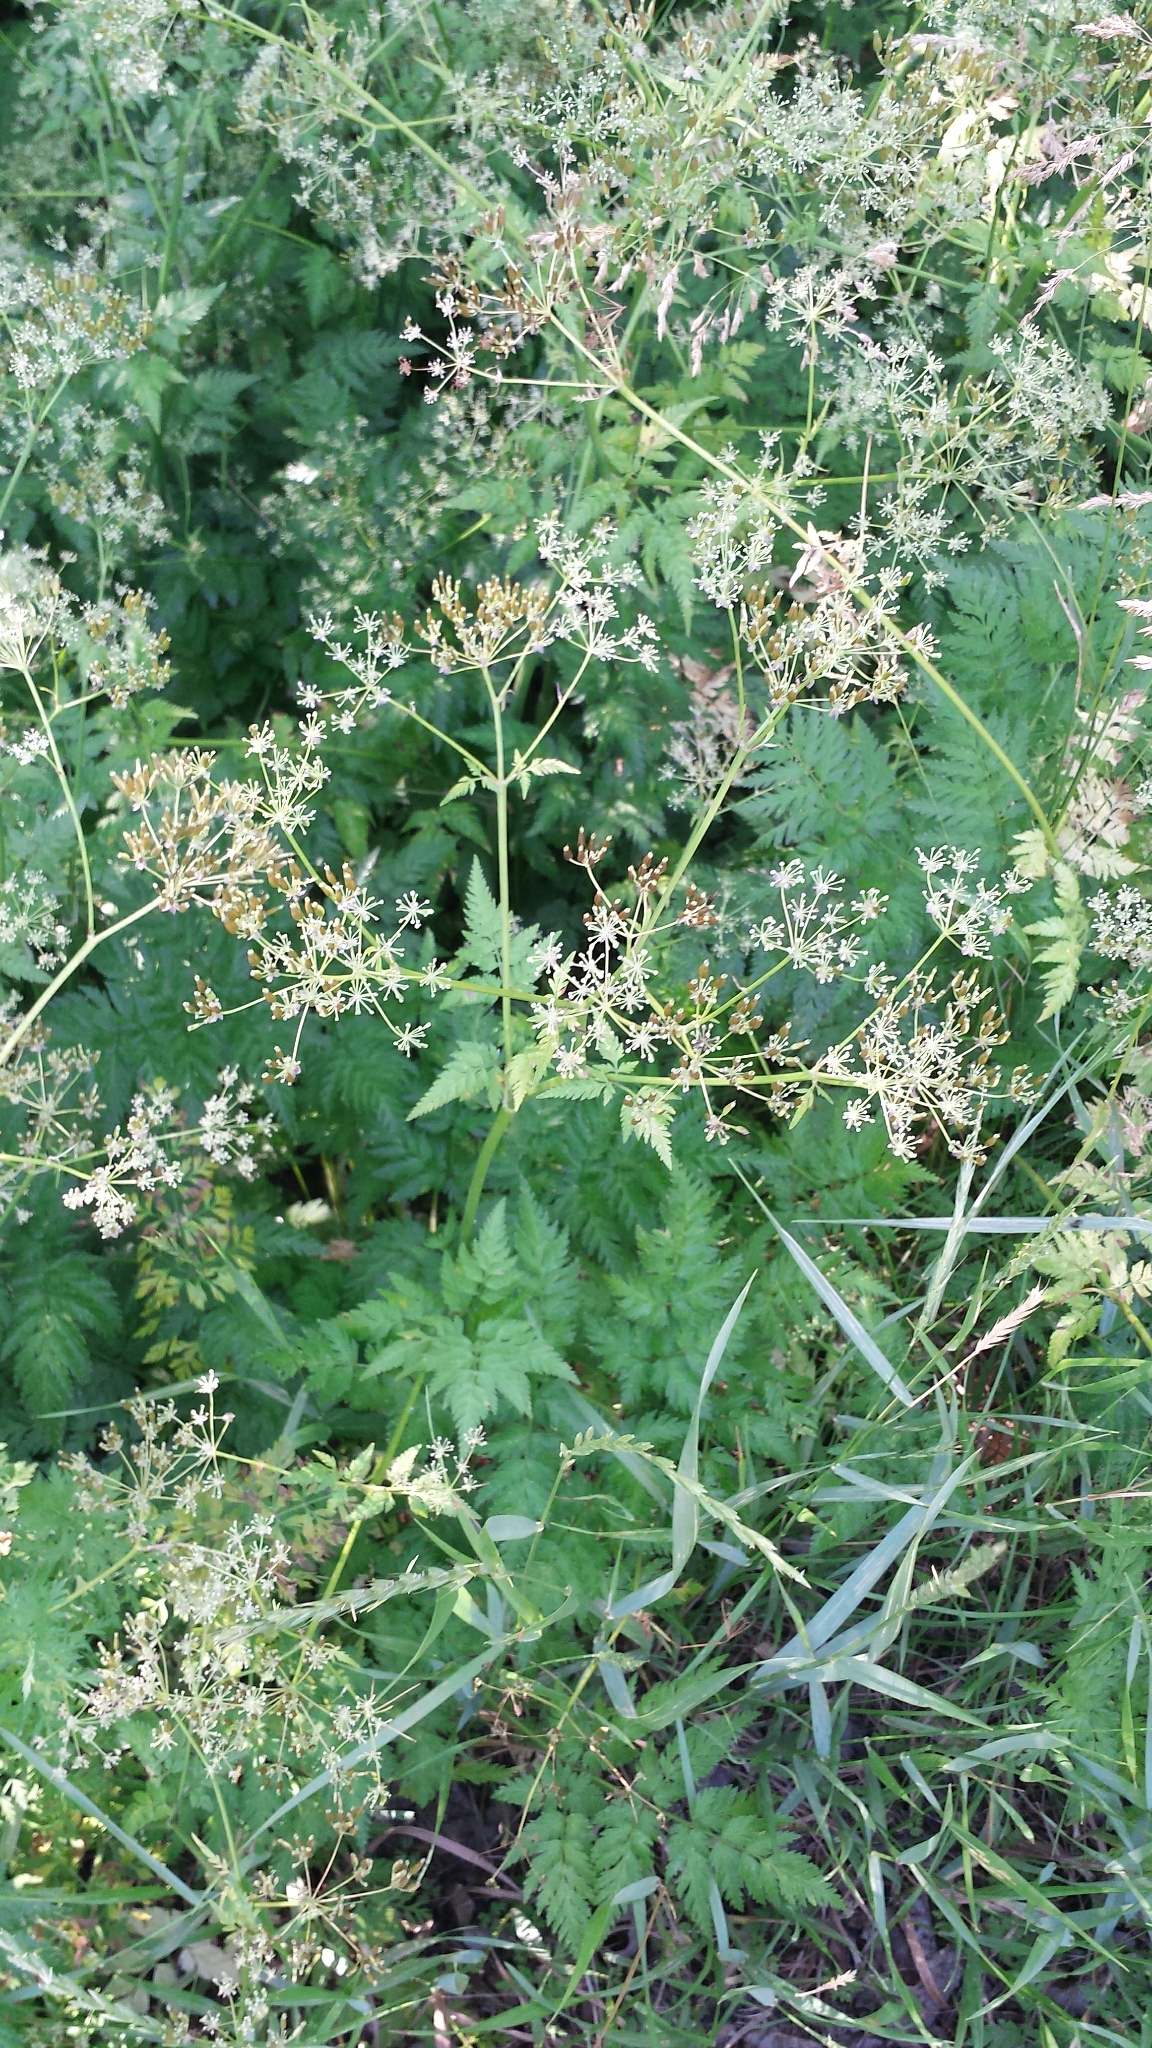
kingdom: Plantae
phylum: Tracheophyta
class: Magnoliopsida
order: Apiales
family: Apiaceae
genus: Anthriscus
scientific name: Anthriscus sylvestris
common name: Cow parsley
